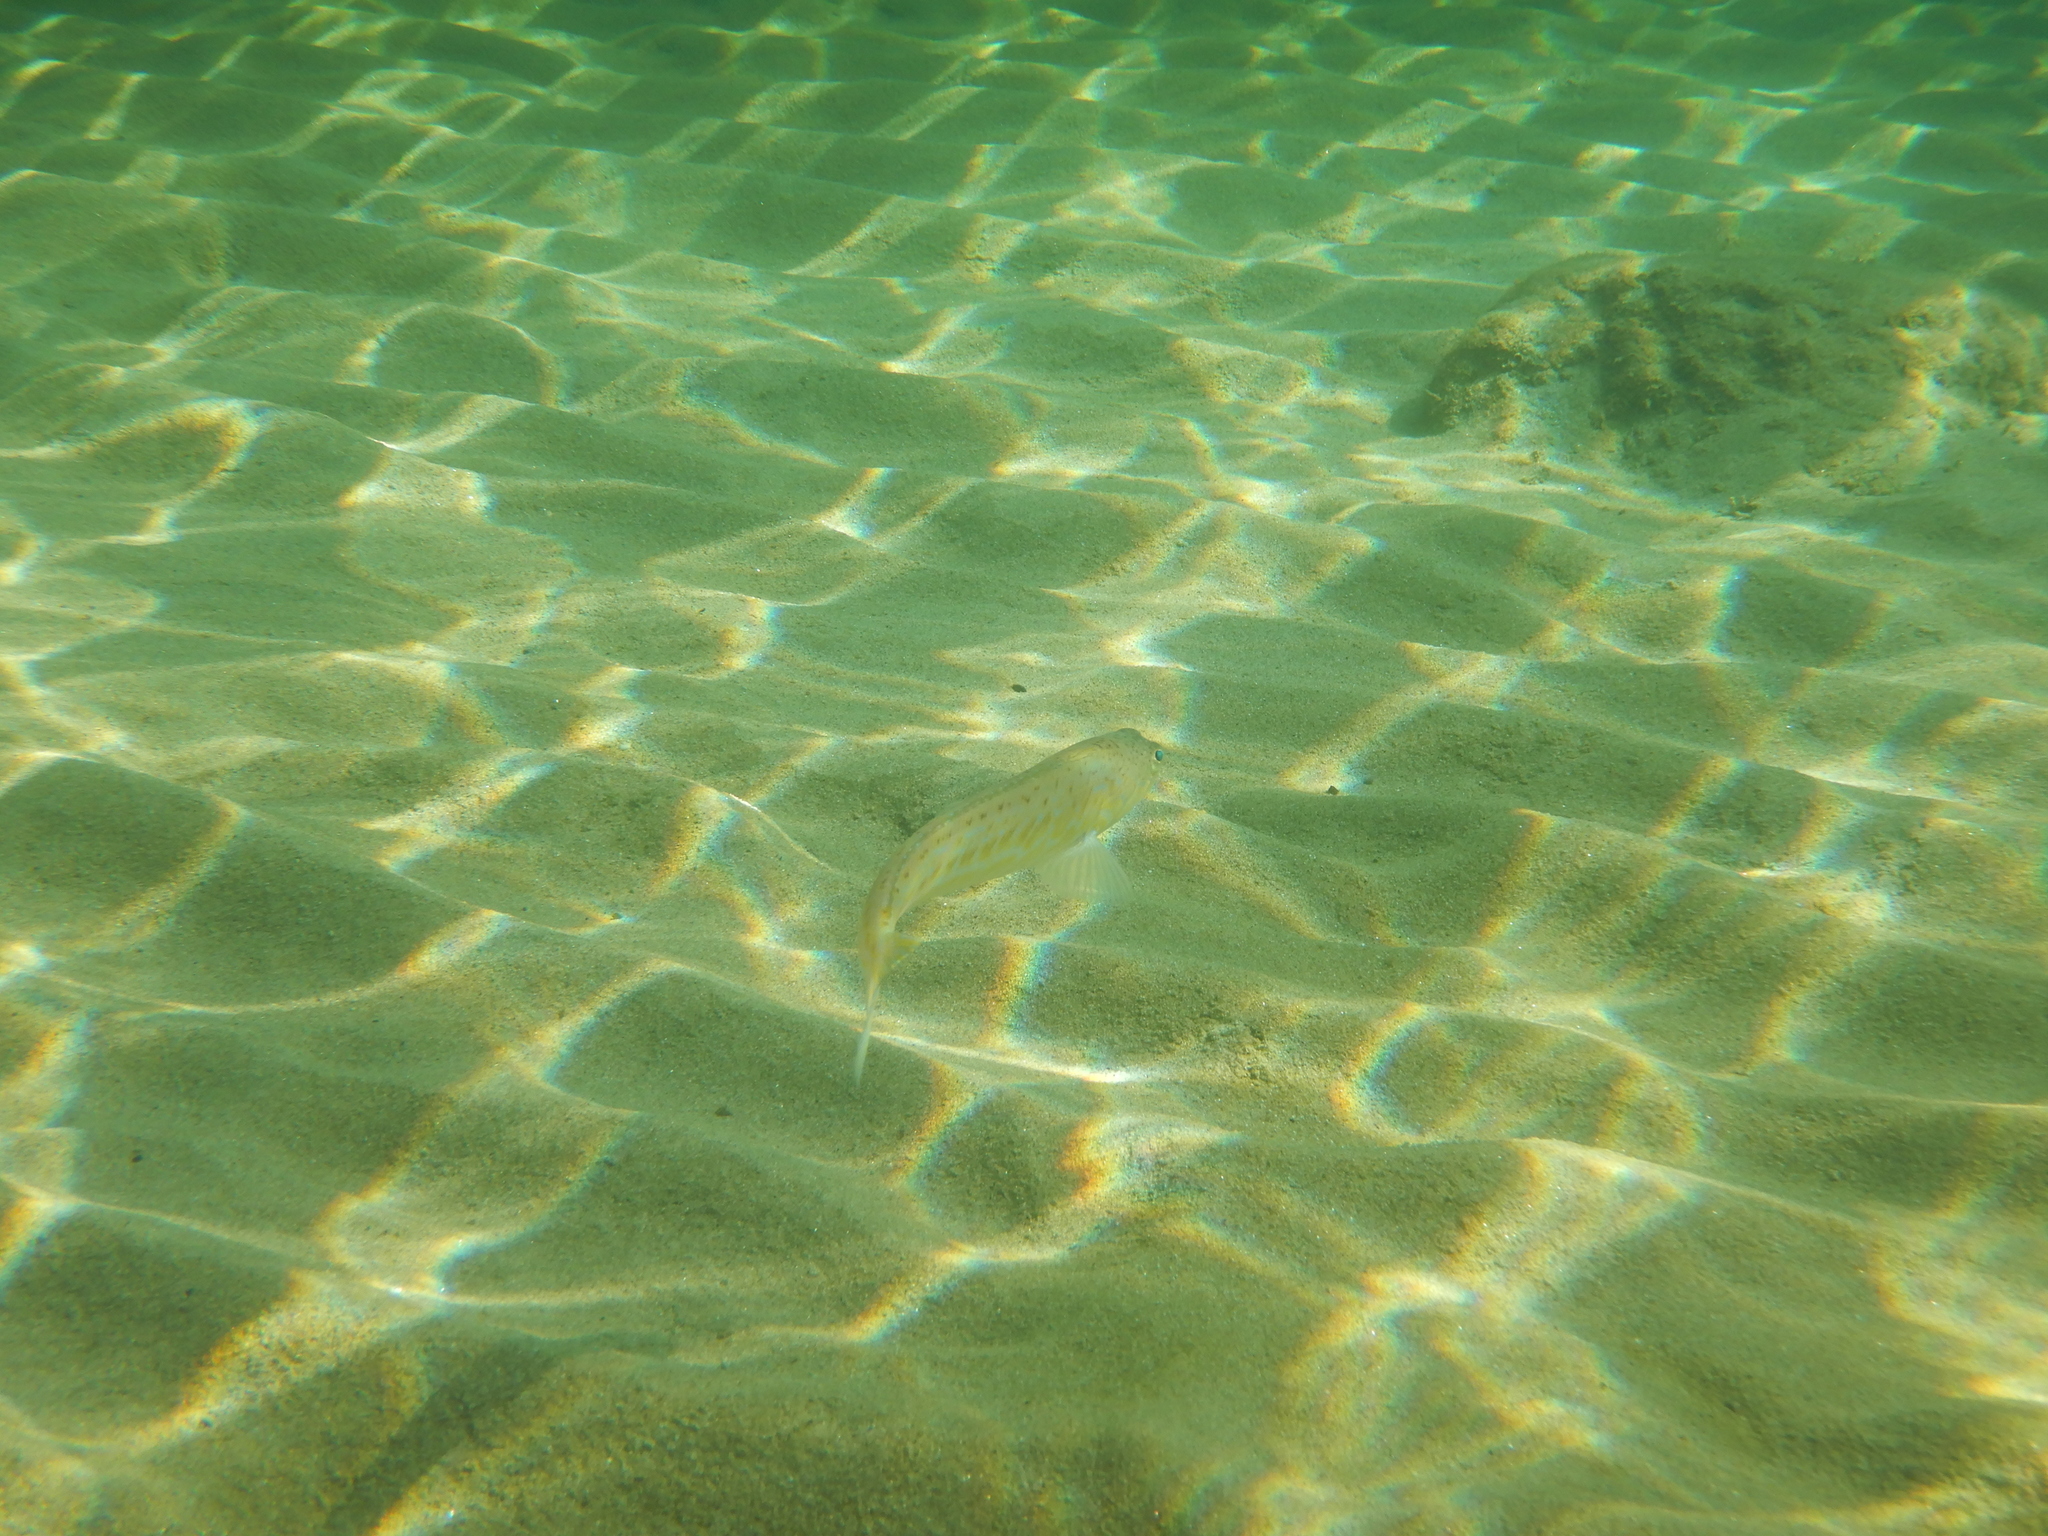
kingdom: Animalia
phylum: Chordata
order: Perciformes
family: Trachinidae
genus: Trachinus
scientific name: Trachinus draco
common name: Greater weever
